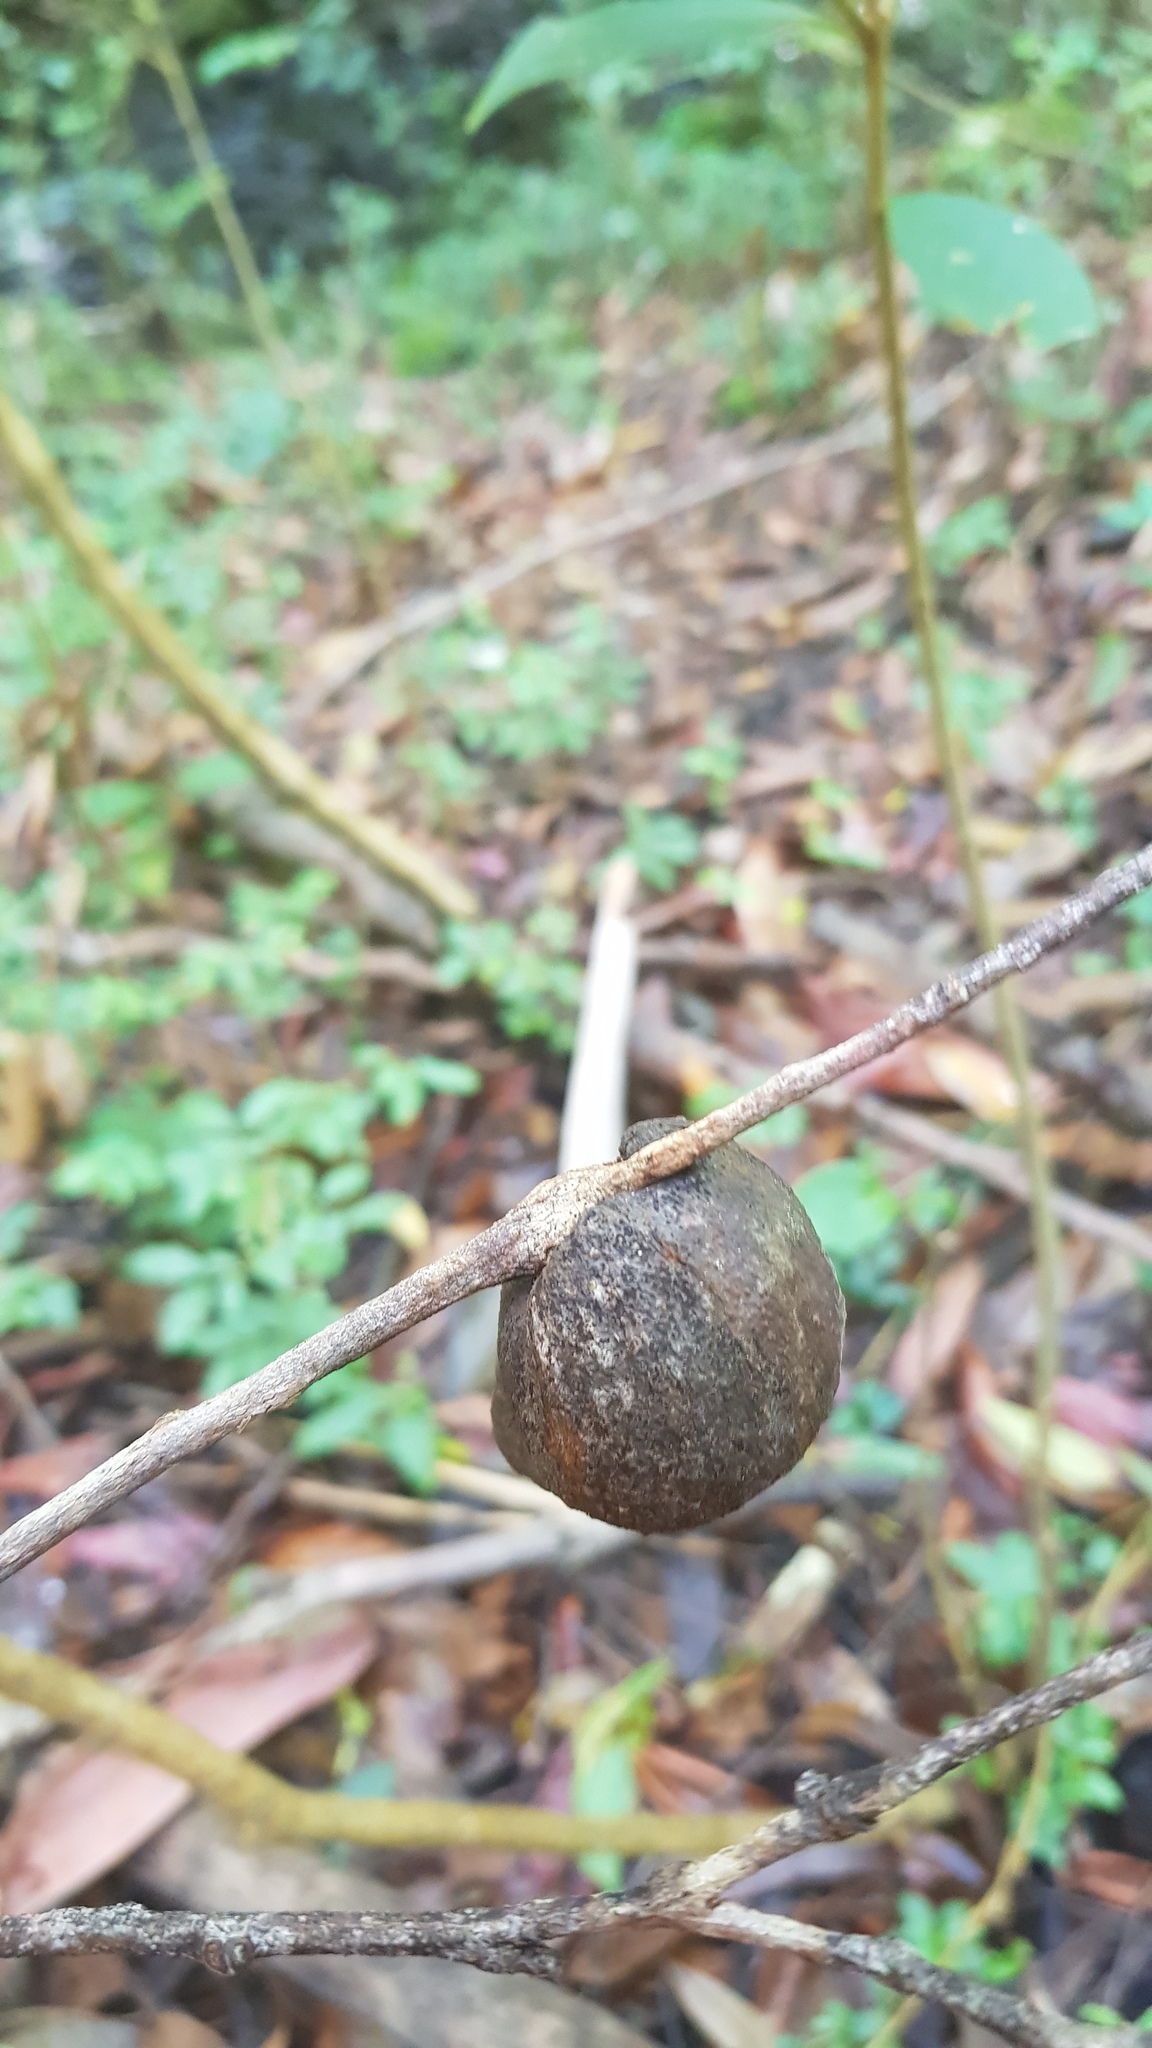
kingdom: Animalia
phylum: Arthropoda
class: Insecta
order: Hemiptera
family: Eriococcidae
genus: Apiomorpha
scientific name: Apiomorpha variabilis
